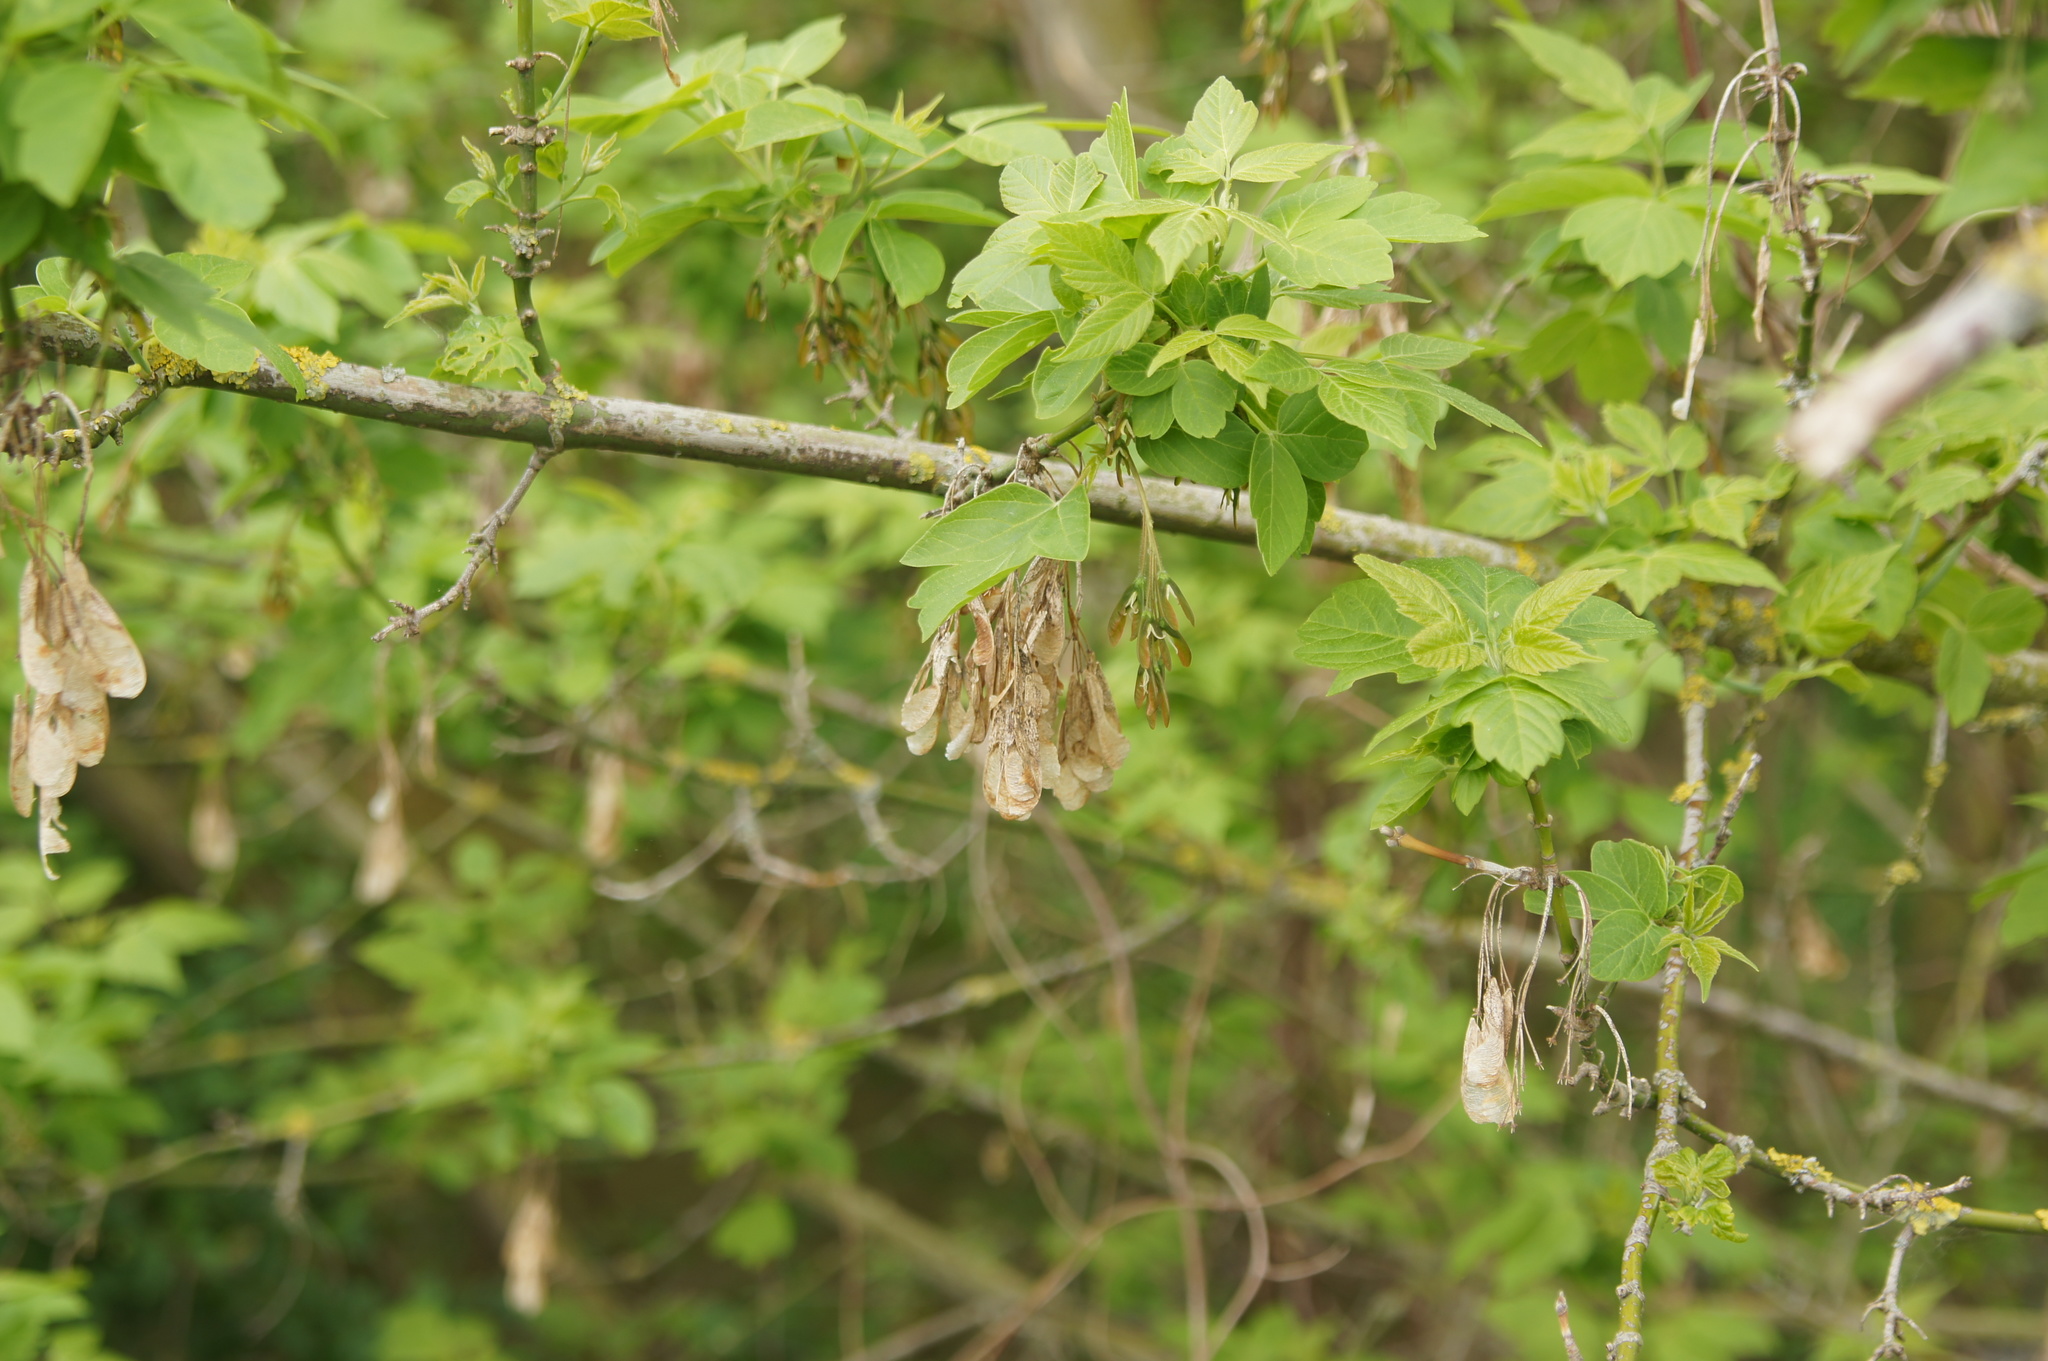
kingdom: Plantae
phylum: Tracheophyta
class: Magnoliopsida
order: Sapindales
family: Sapindaceae
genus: Acer
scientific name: Acer negundo
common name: Ashleaf maple
